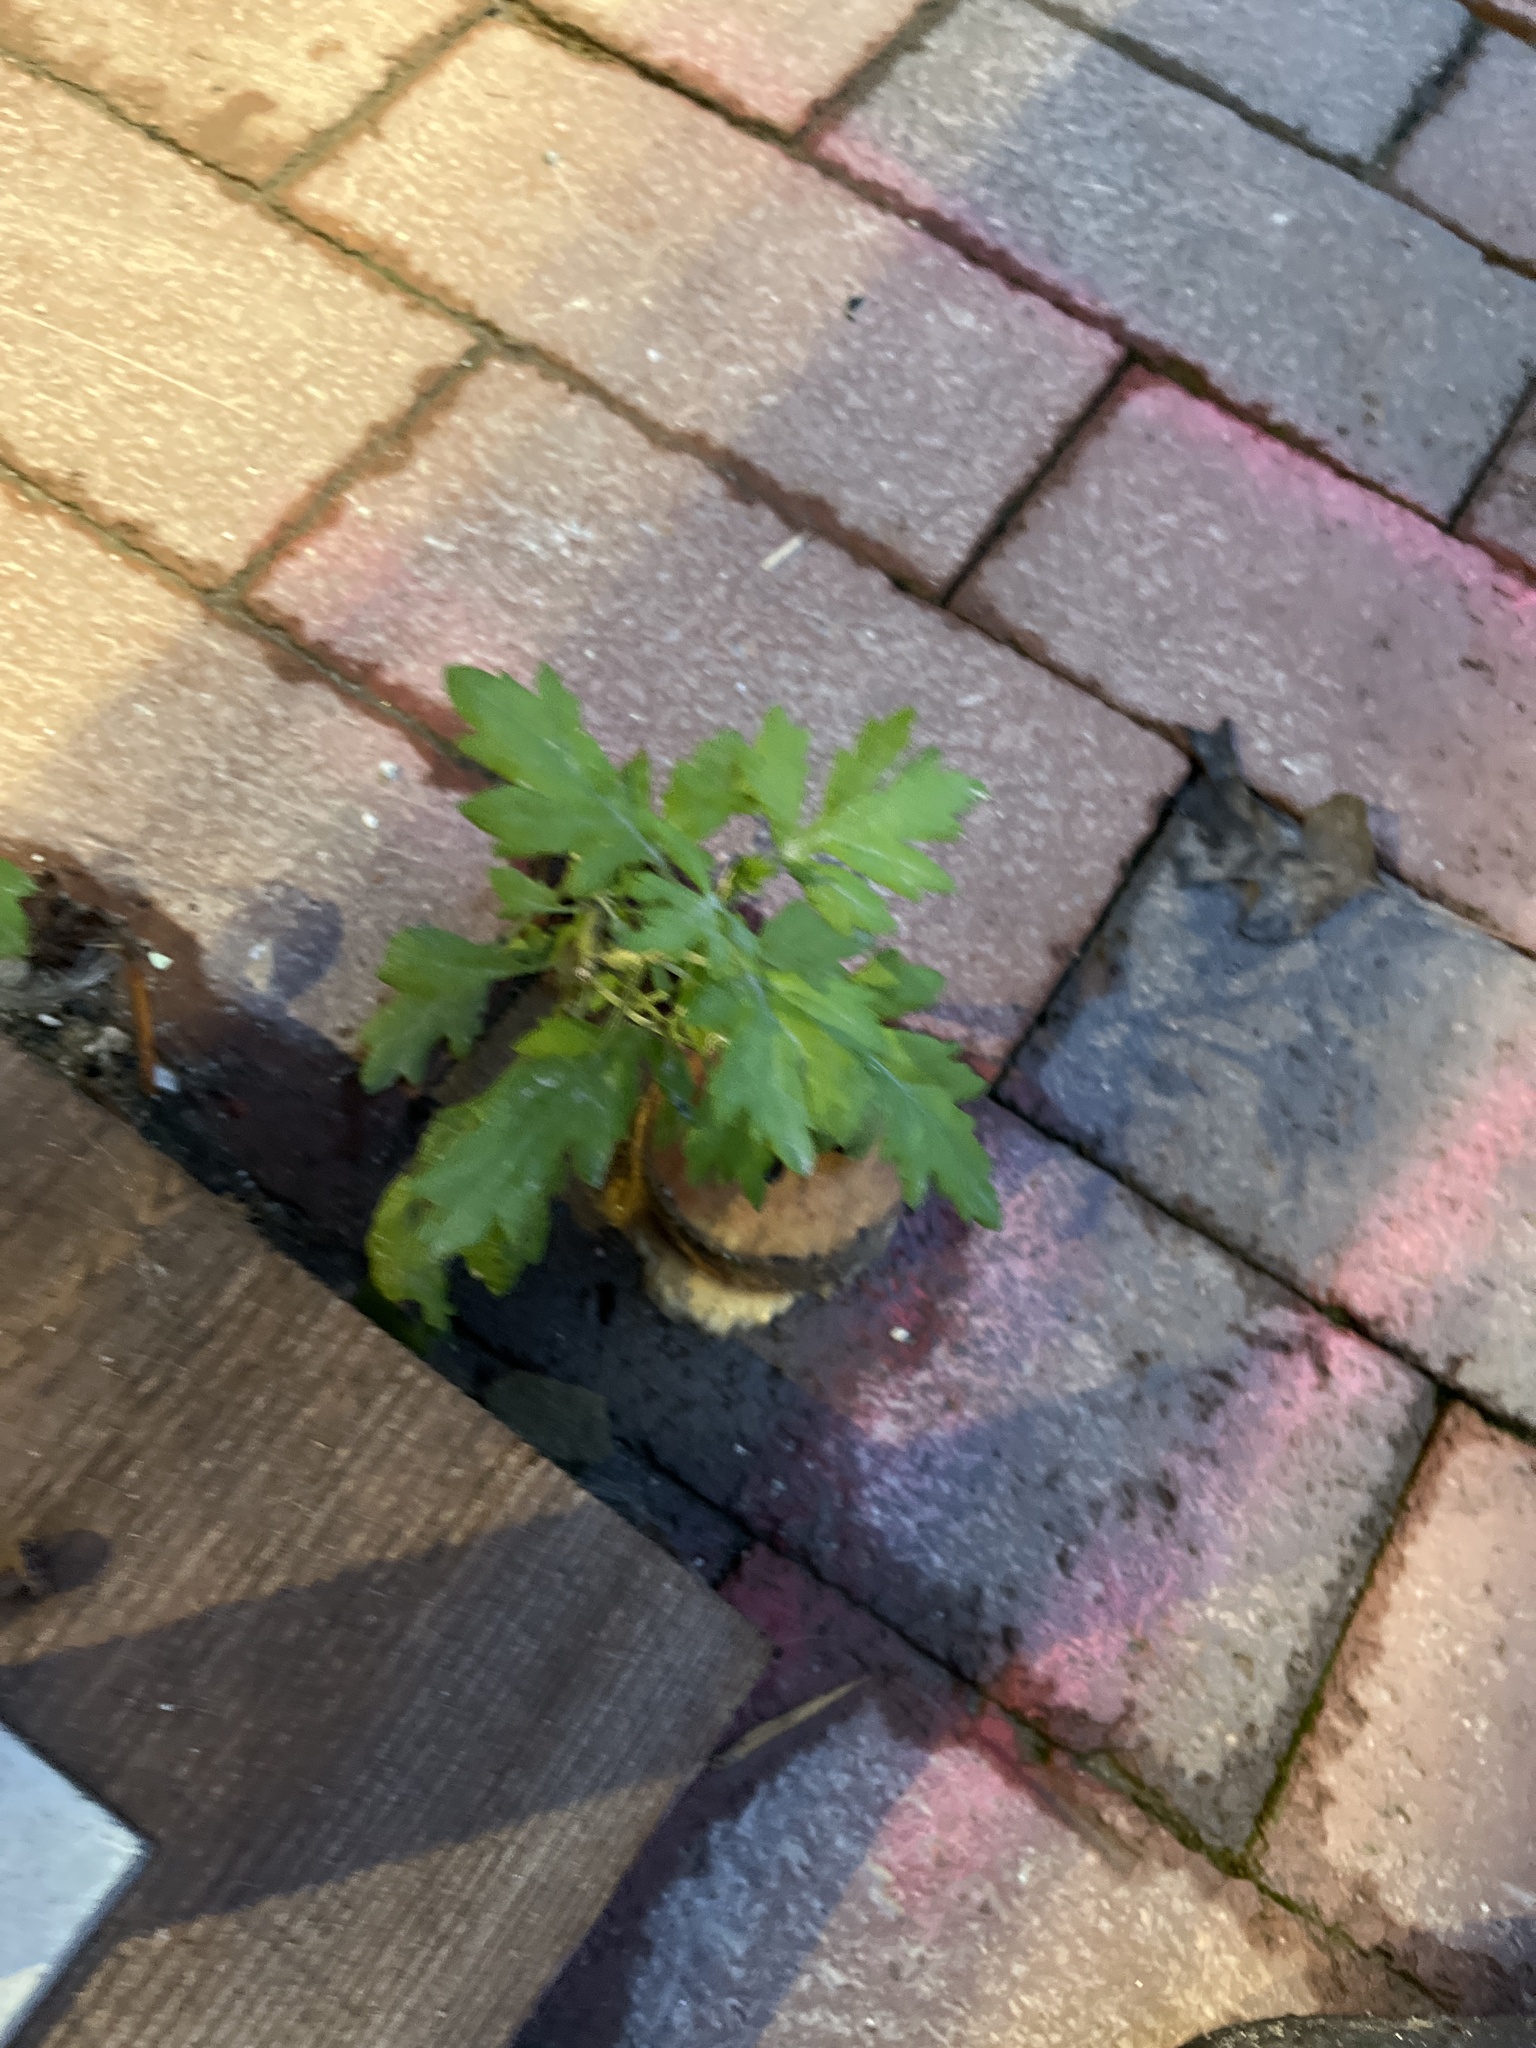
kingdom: Plantae
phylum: Tracheophyta
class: Magnoliopsida
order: Asterales
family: Asteraceae
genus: Artemisia
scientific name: Artemisia vulgaris
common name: Mugwort
